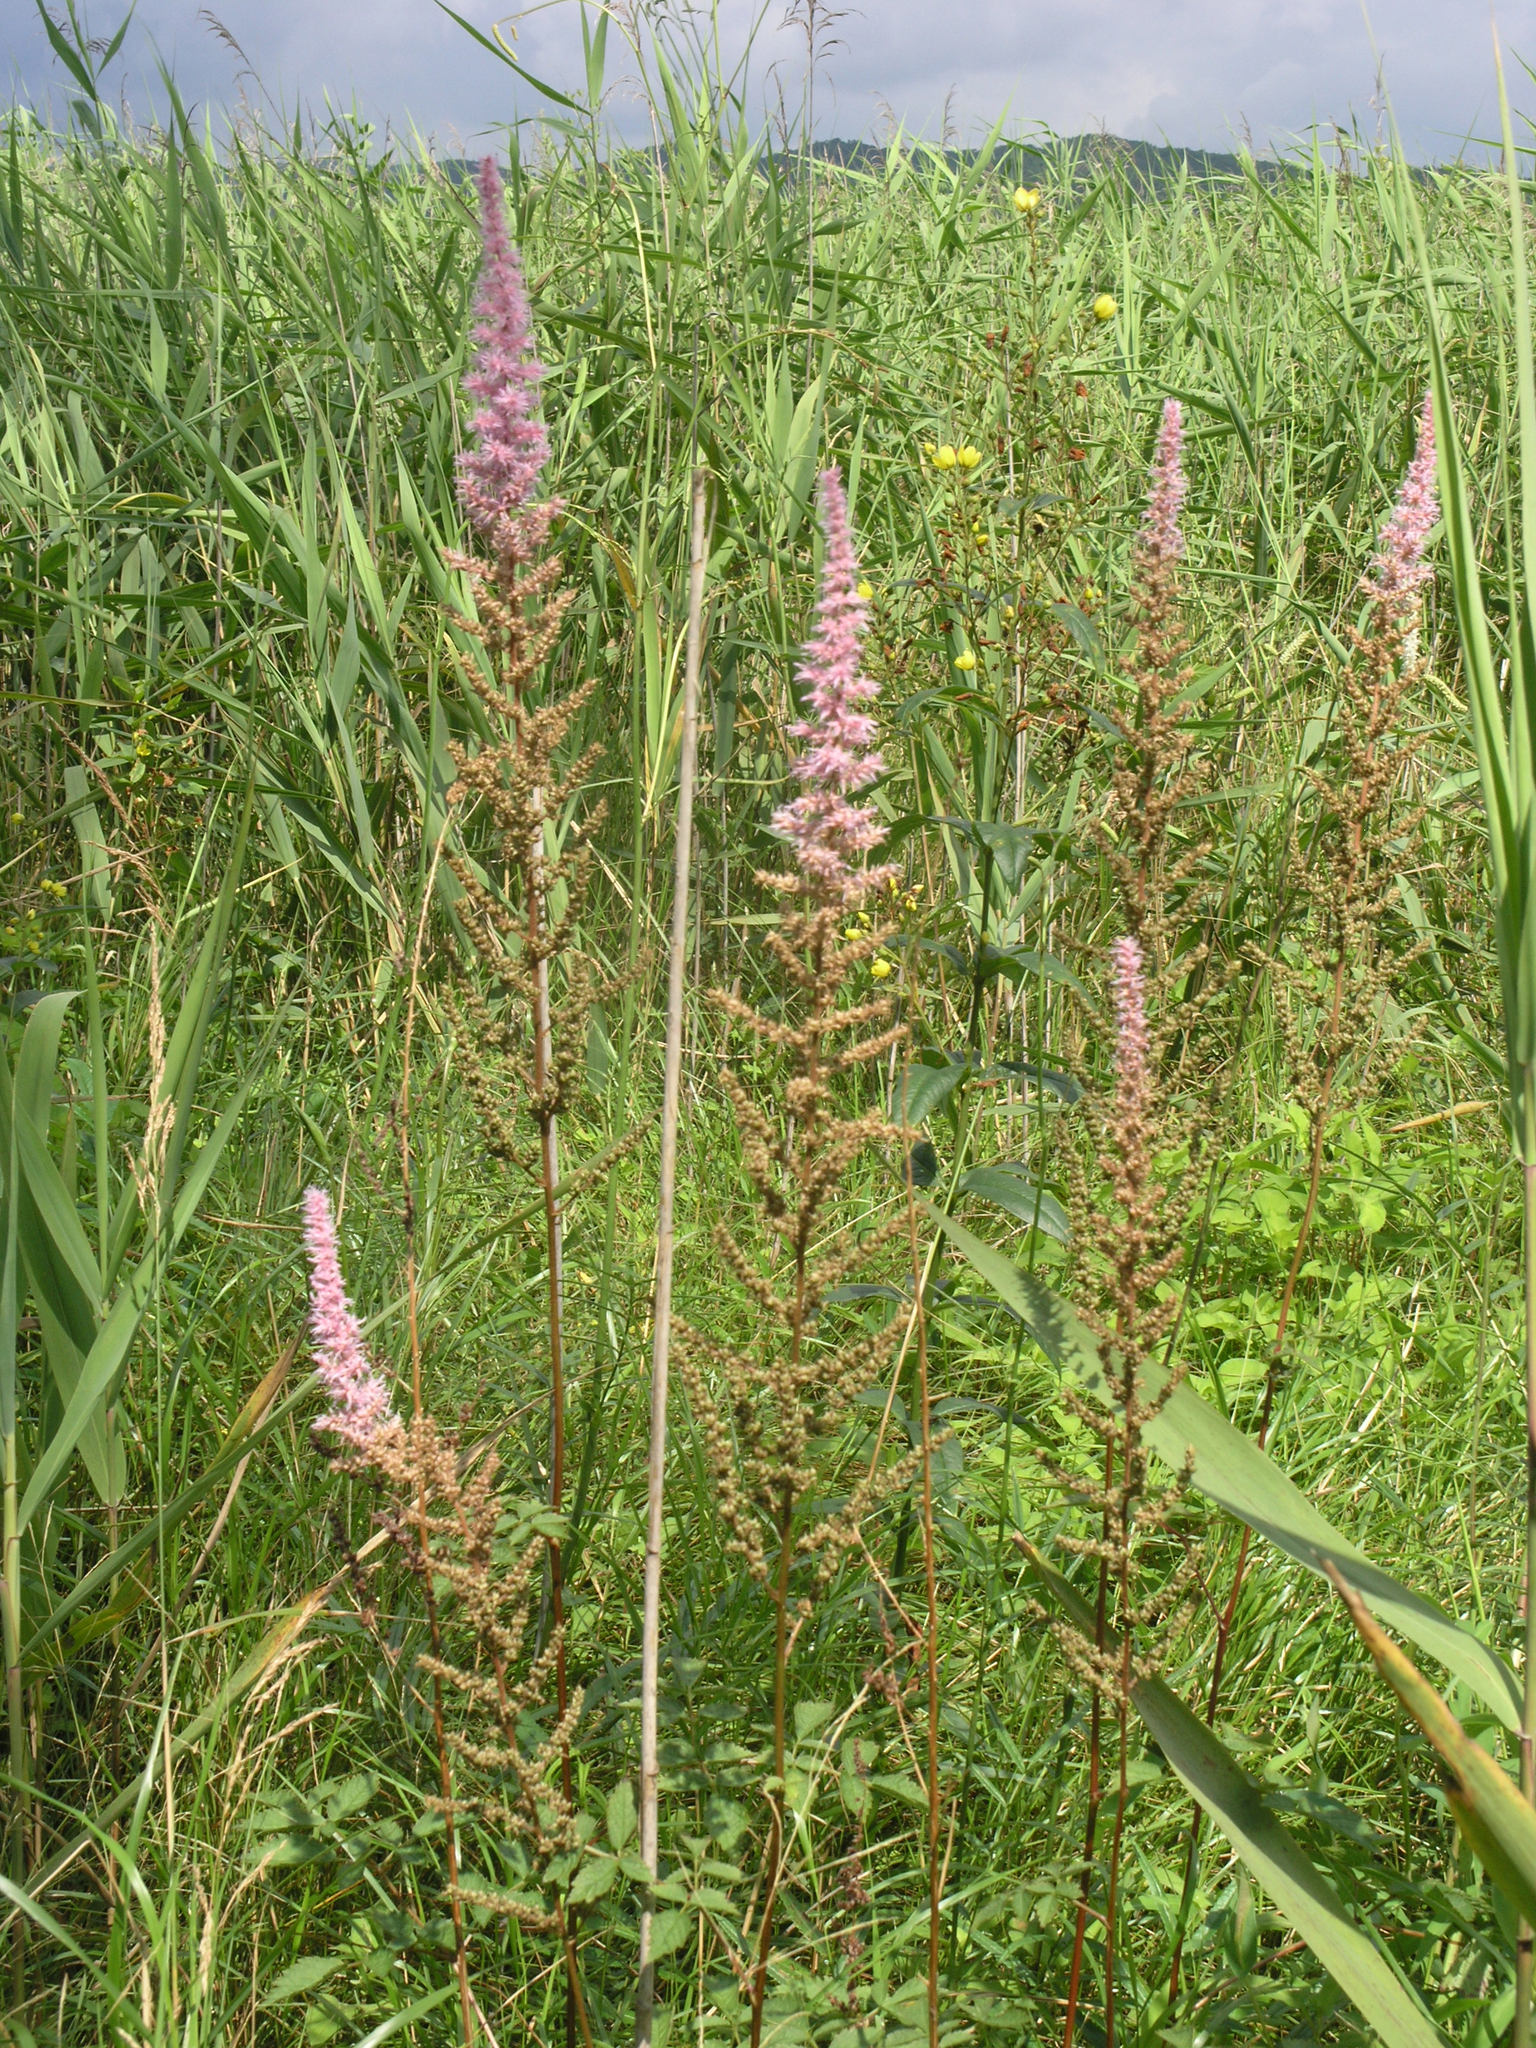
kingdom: Plantae
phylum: Tracheophyta
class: Magnoliopsida
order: Saxifragales
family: Saxifragaceae
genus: Astilbe
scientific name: Astilbe rubra
